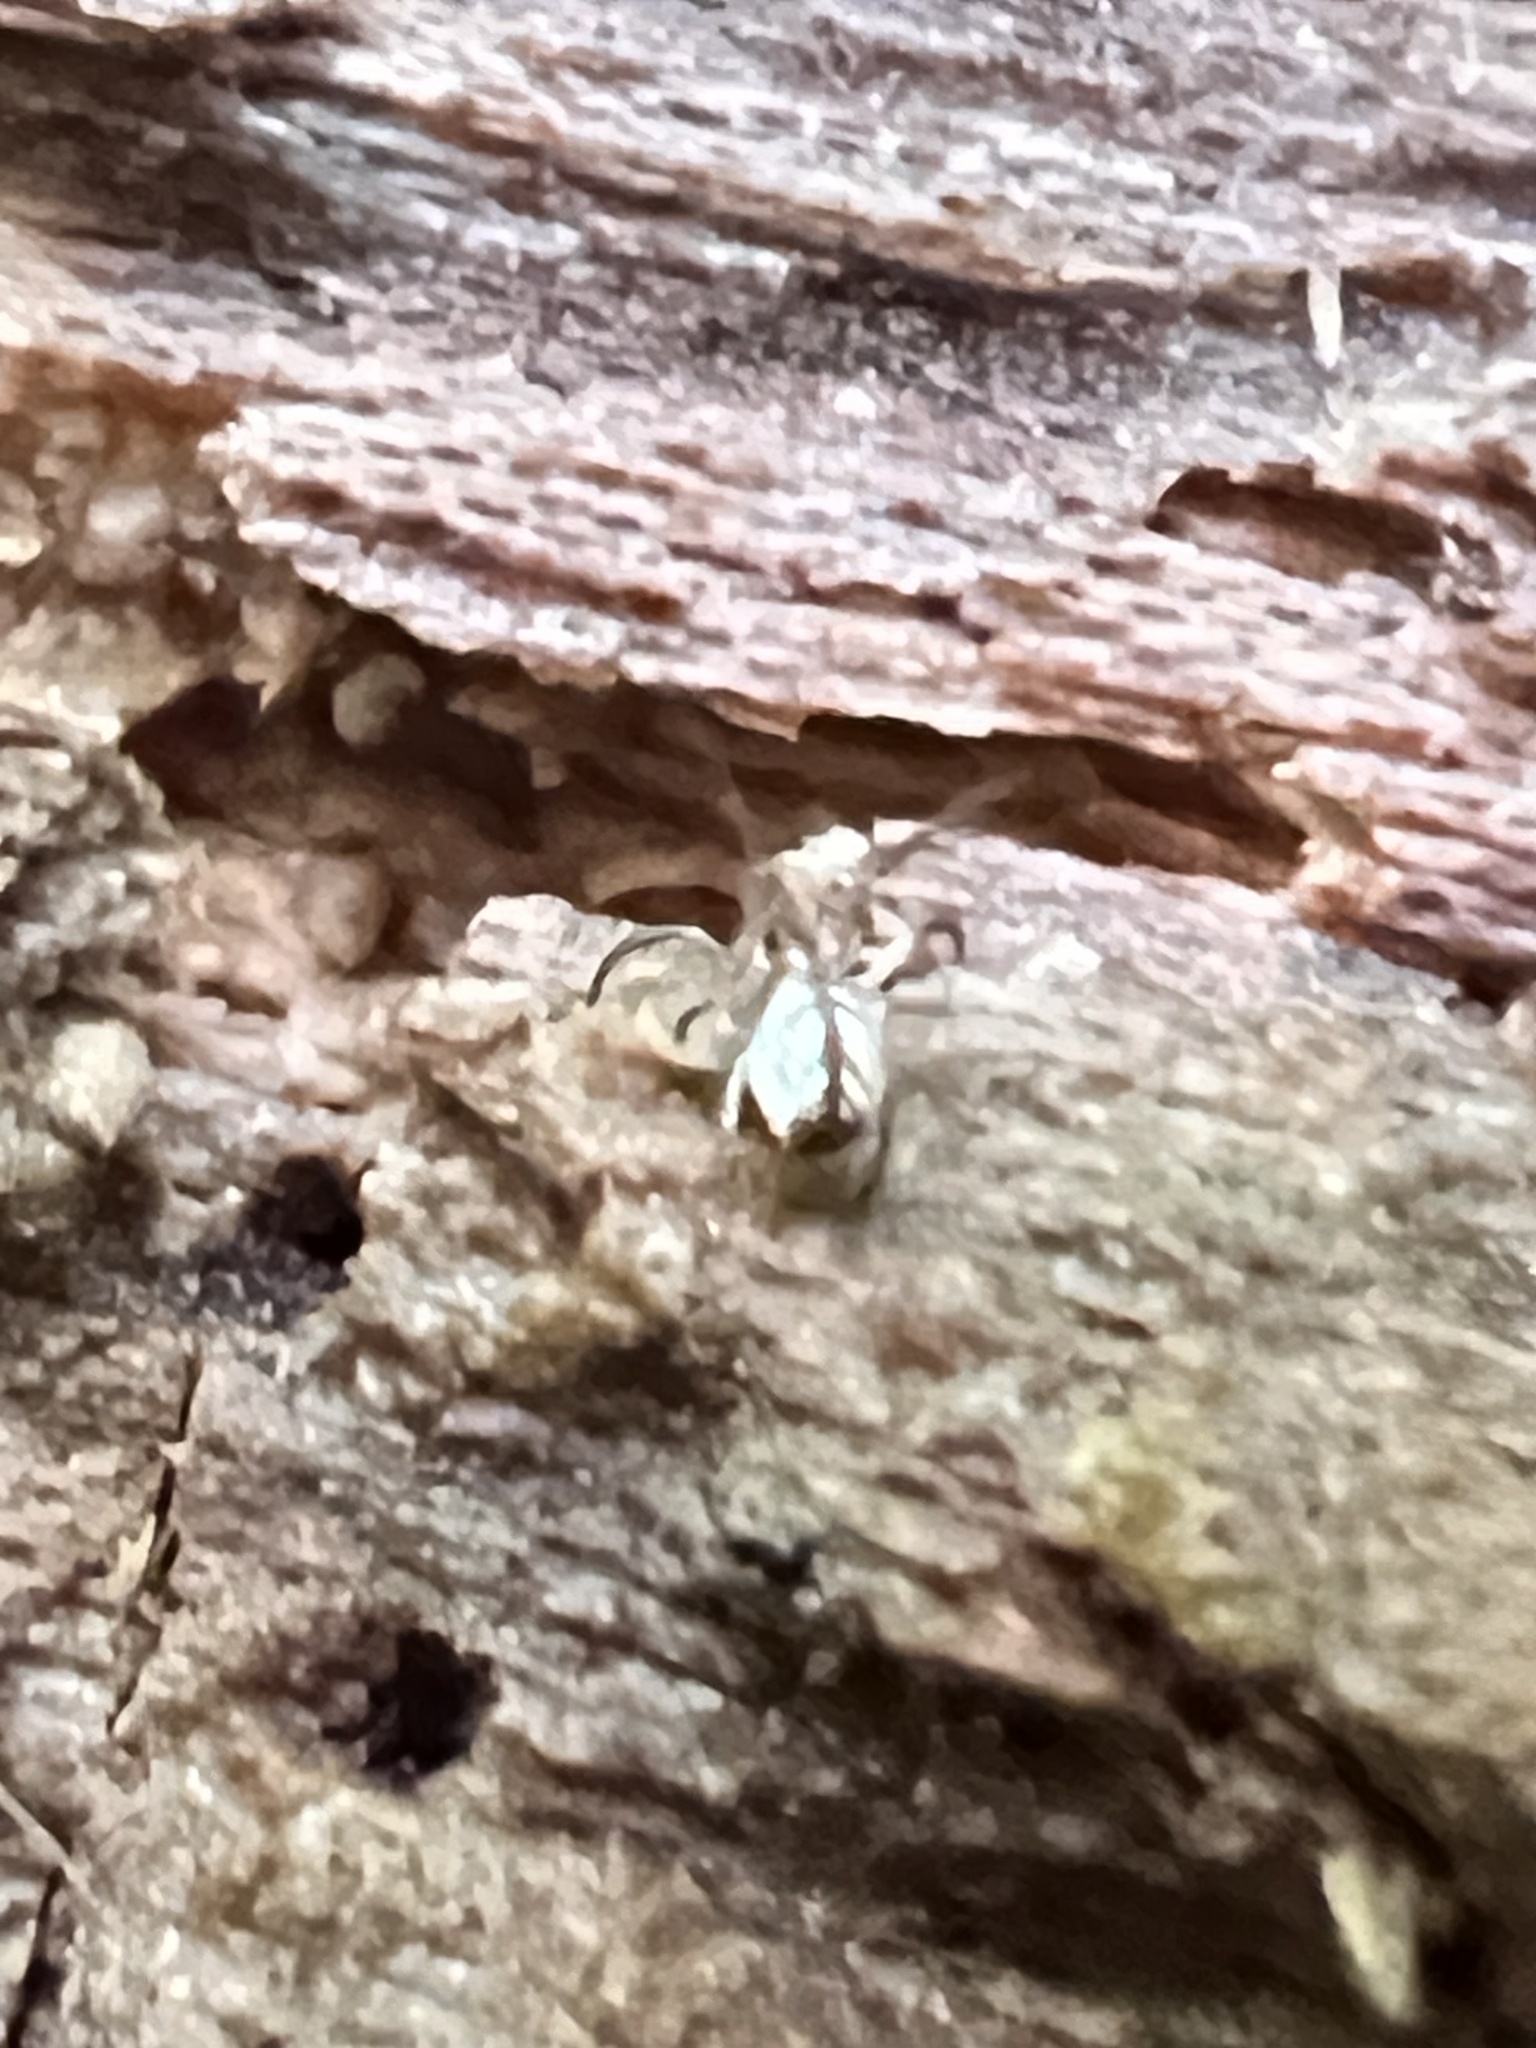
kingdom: Animalia
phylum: Arthropoda
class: Arachnida
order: Araneae
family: Tetragnathidae
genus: Leucauge
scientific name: Leucauge venusta
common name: Longjawed orb weavers
